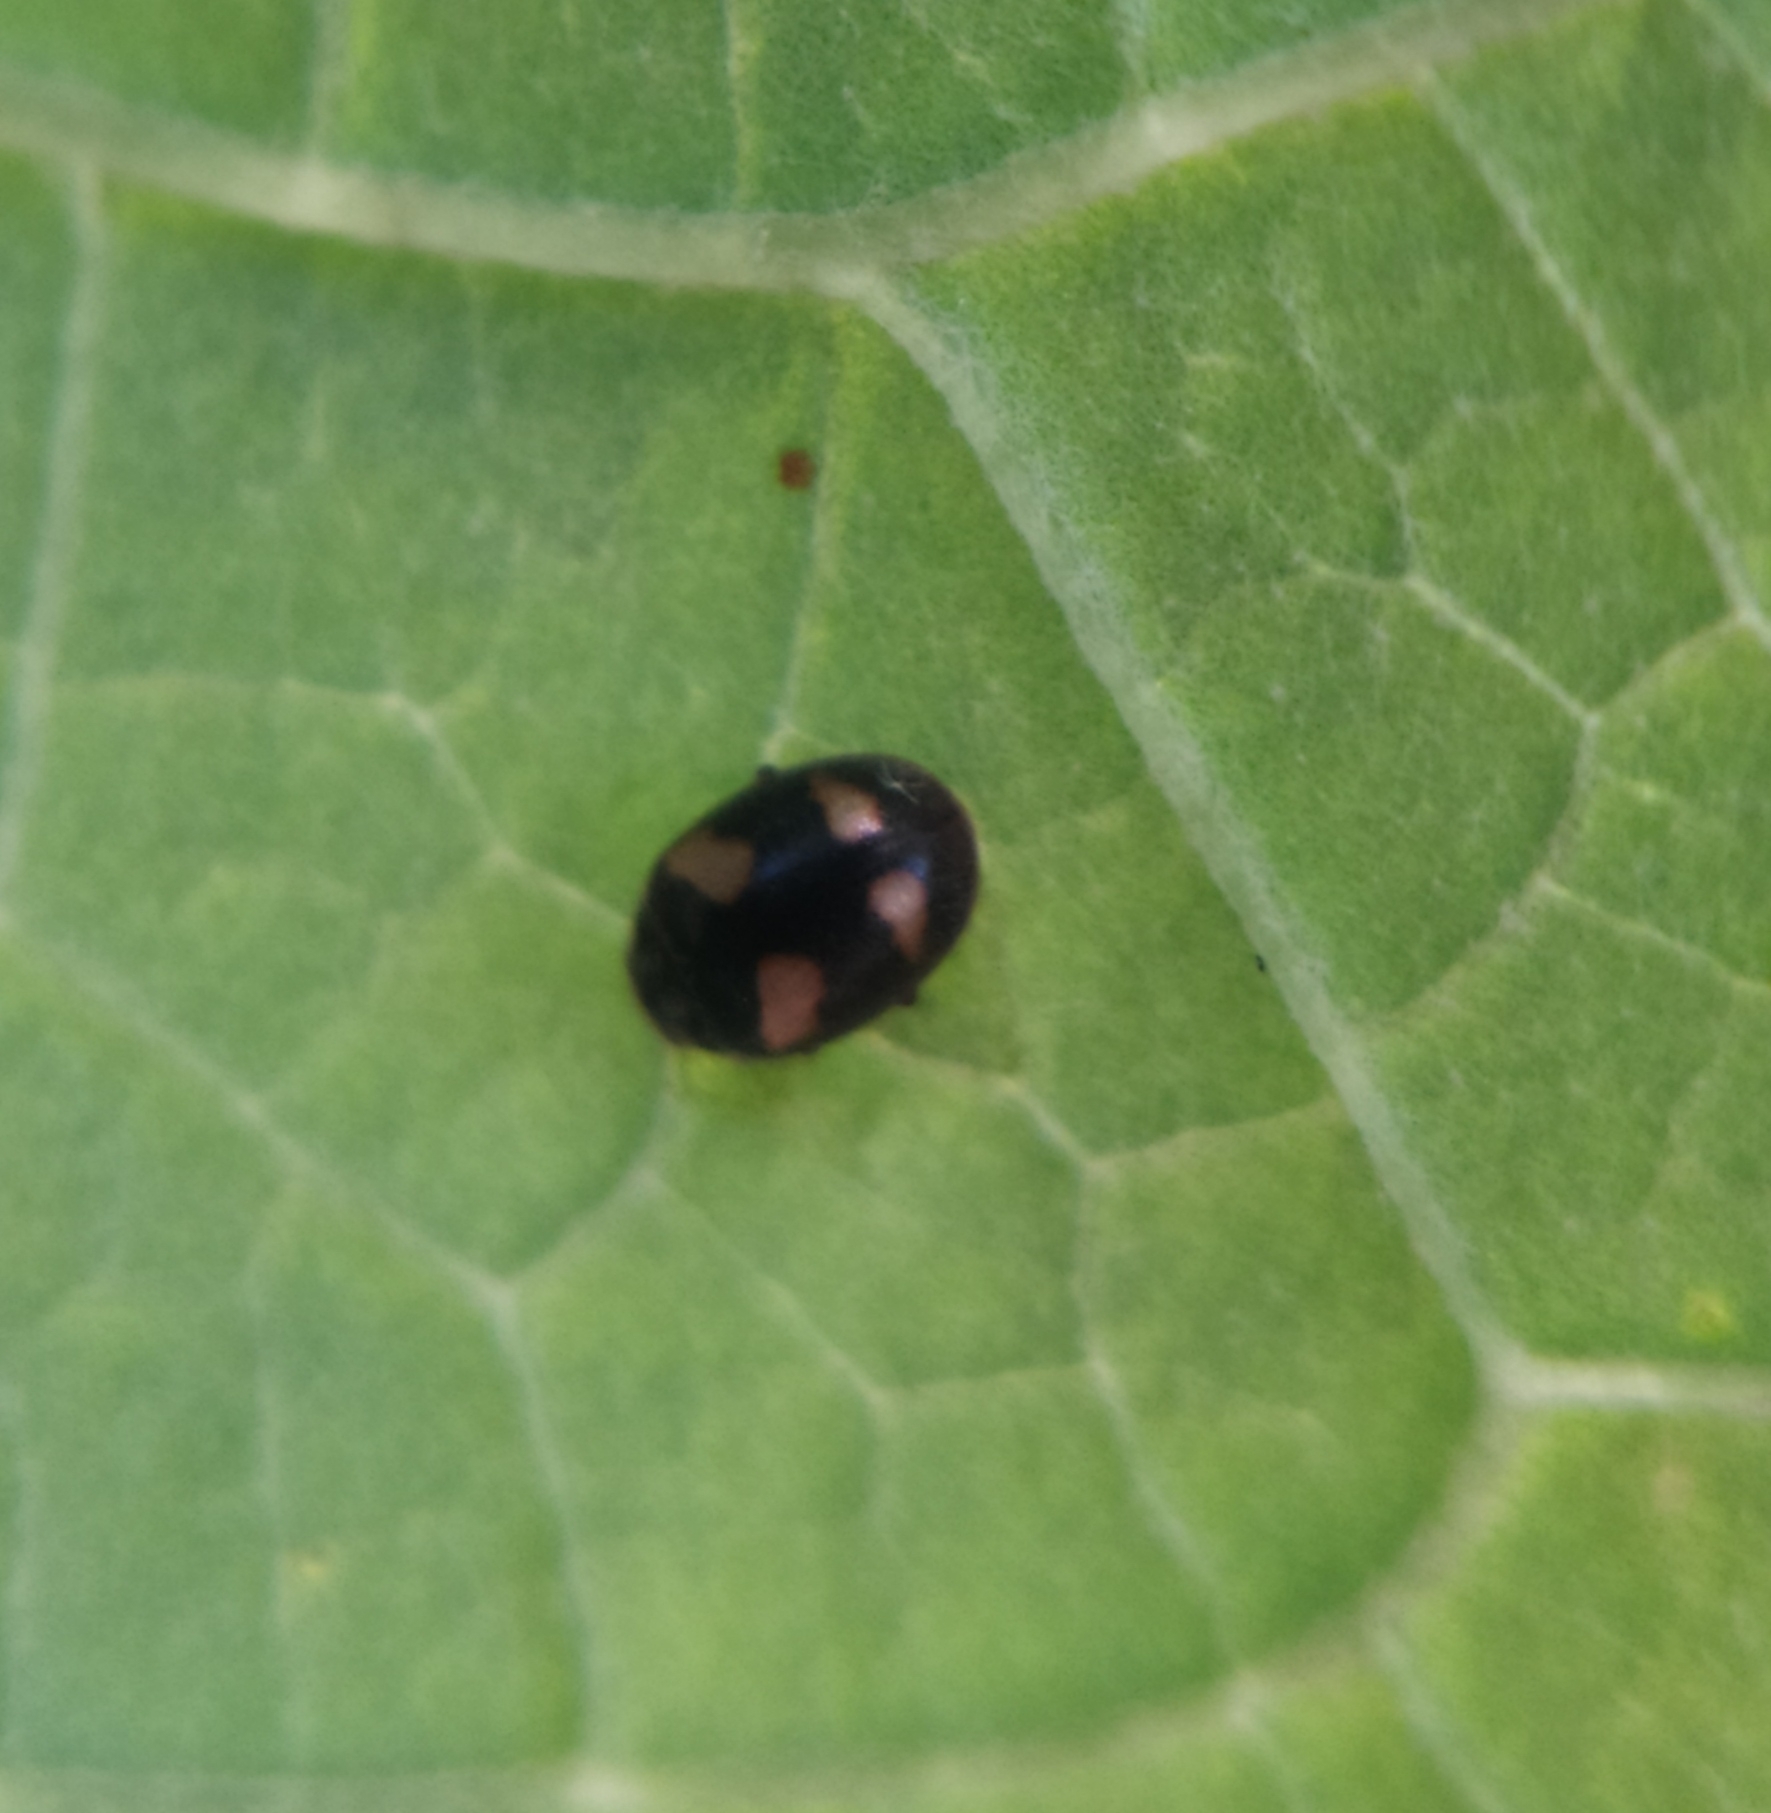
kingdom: Animalia
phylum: Arthropoda
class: Insecta
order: Coleoptera
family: Coccinellidae
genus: Nephus
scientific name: Nephus quadrimaculatus
